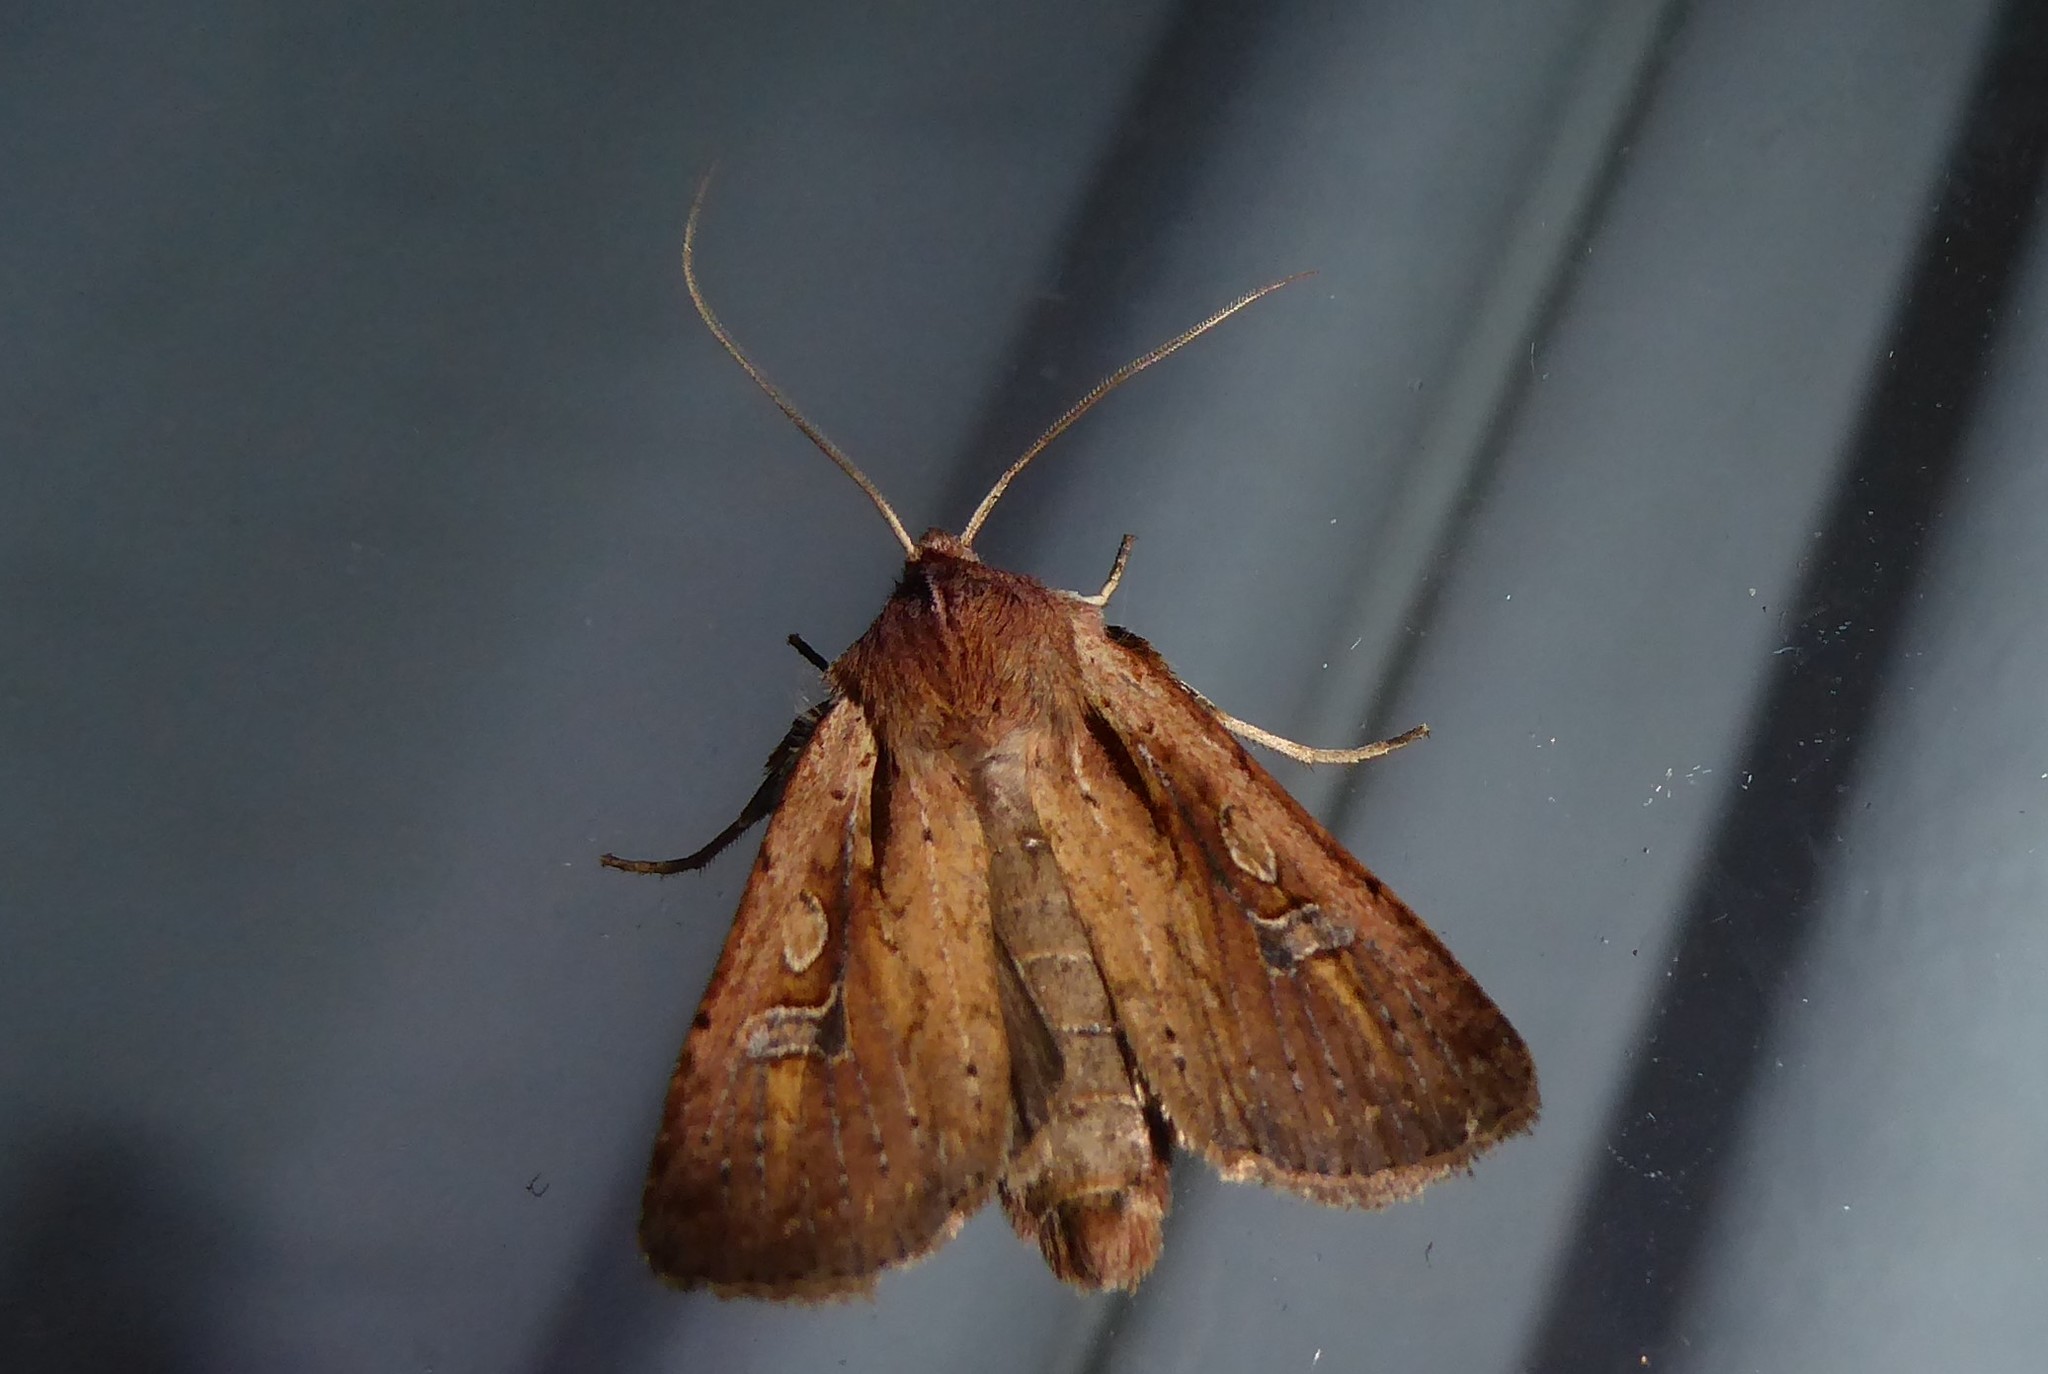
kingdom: Animalia
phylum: Arthropoda
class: Insecta
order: Lepidoptera
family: Noctuidae
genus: Ichneutica
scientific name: Ichneutica atristriga
